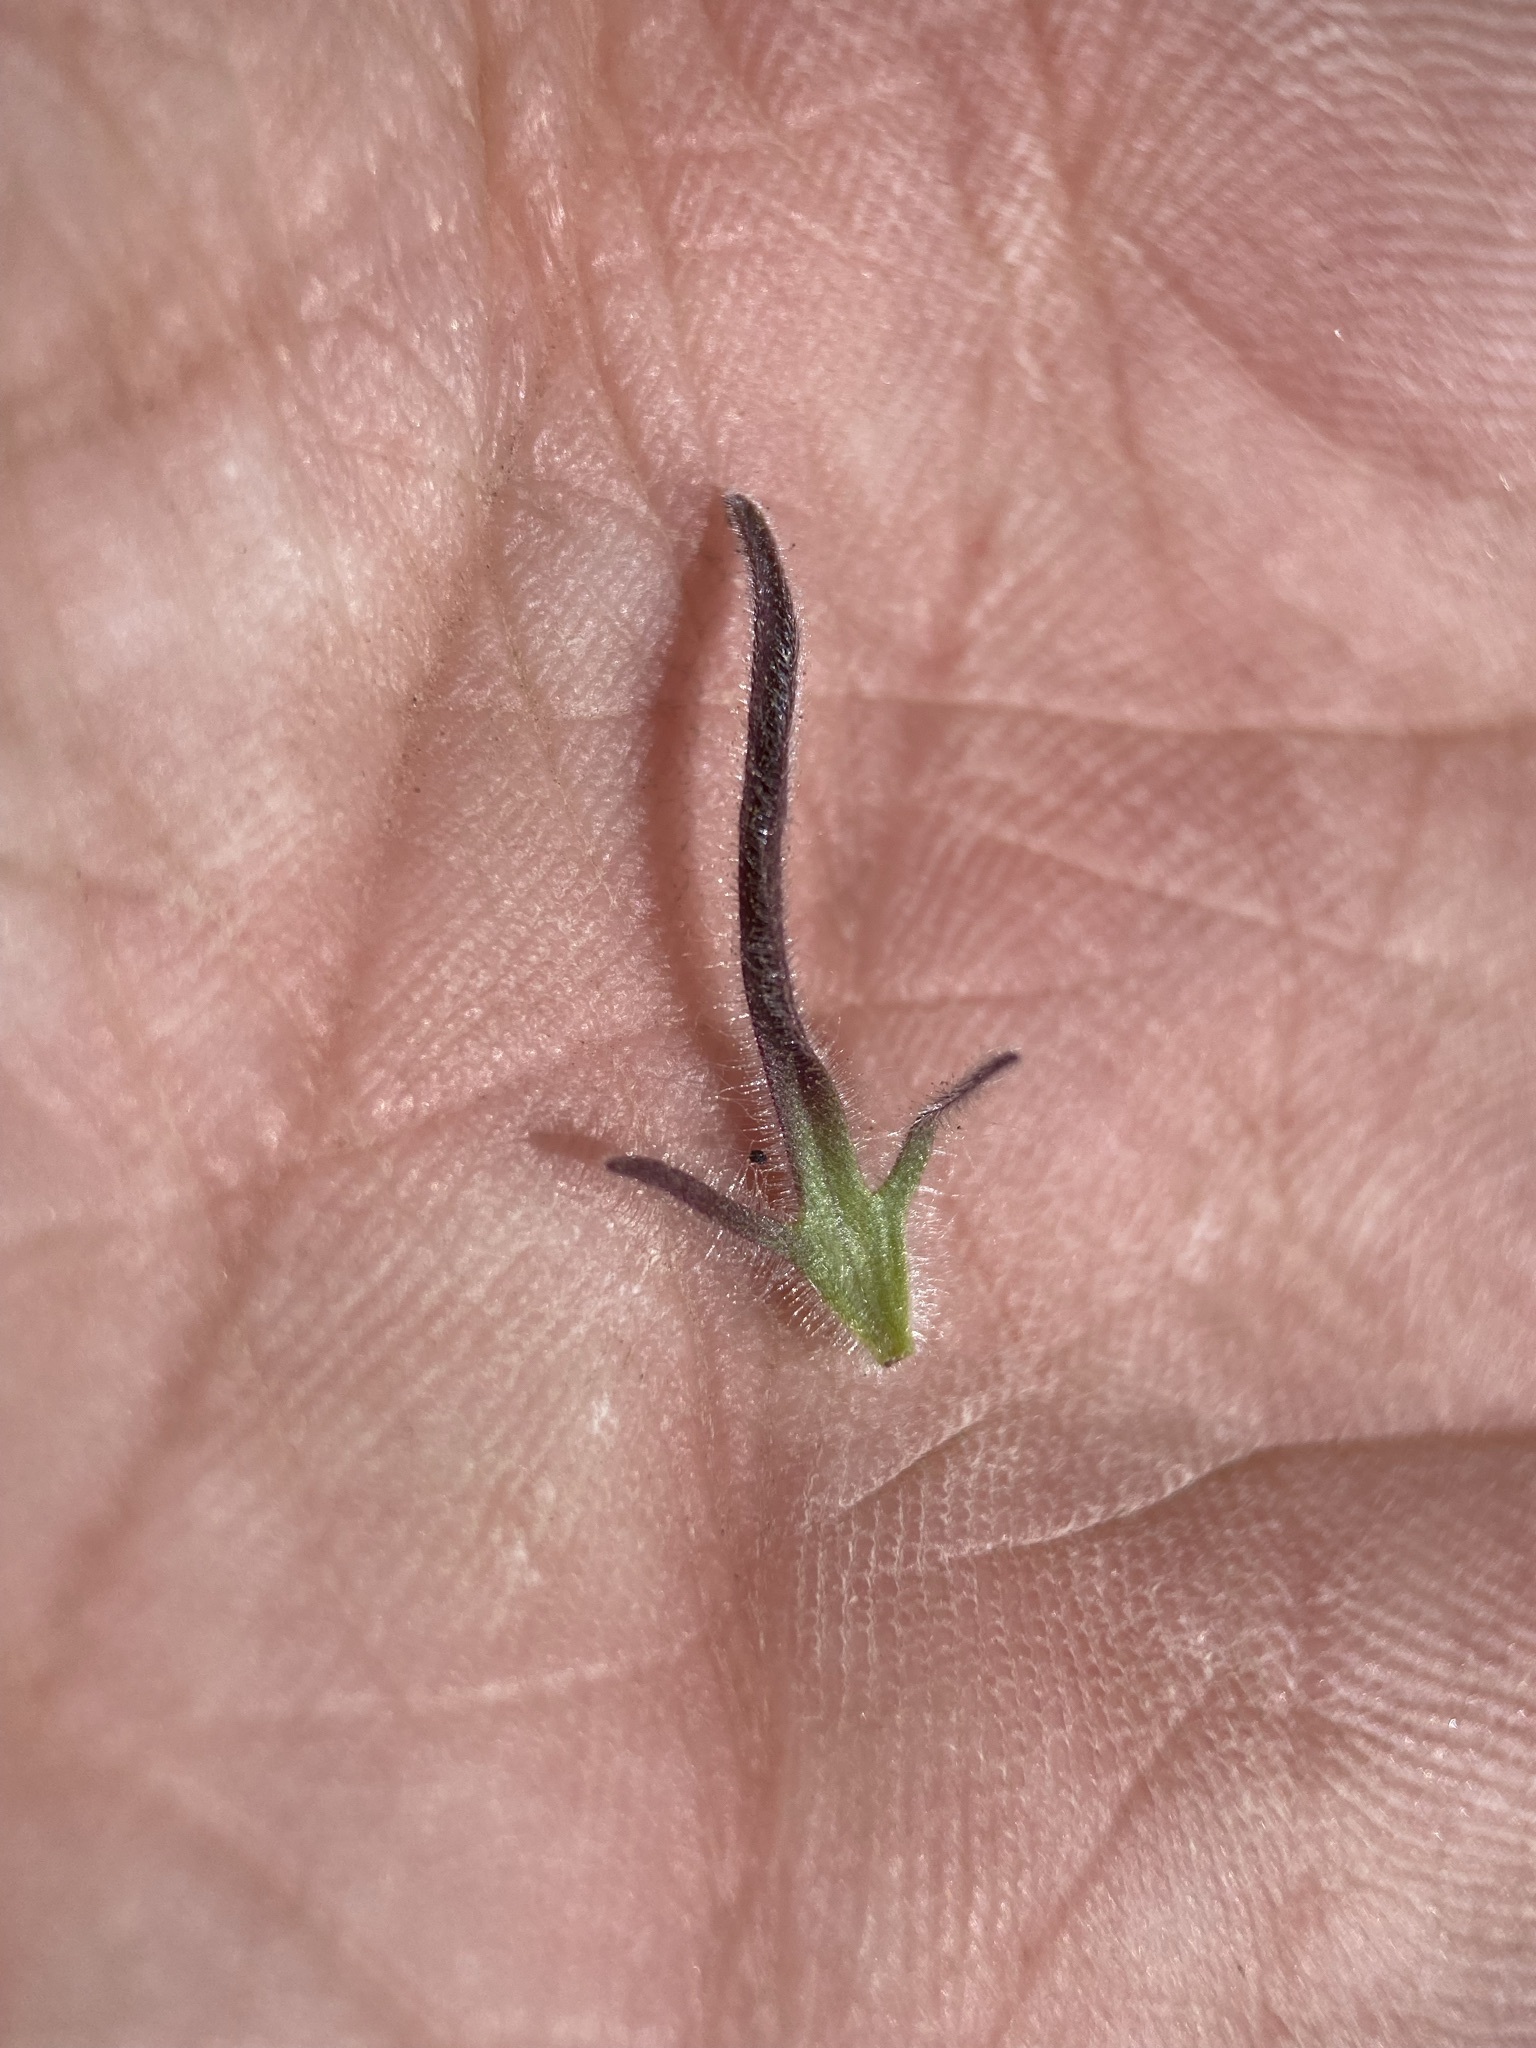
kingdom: Plantae
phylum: Tracheophyta
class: Magnoliopsida
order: Lamiales
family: Orobanchaceae
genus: Cordylanthus
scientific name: Cordylanthus capitatus
